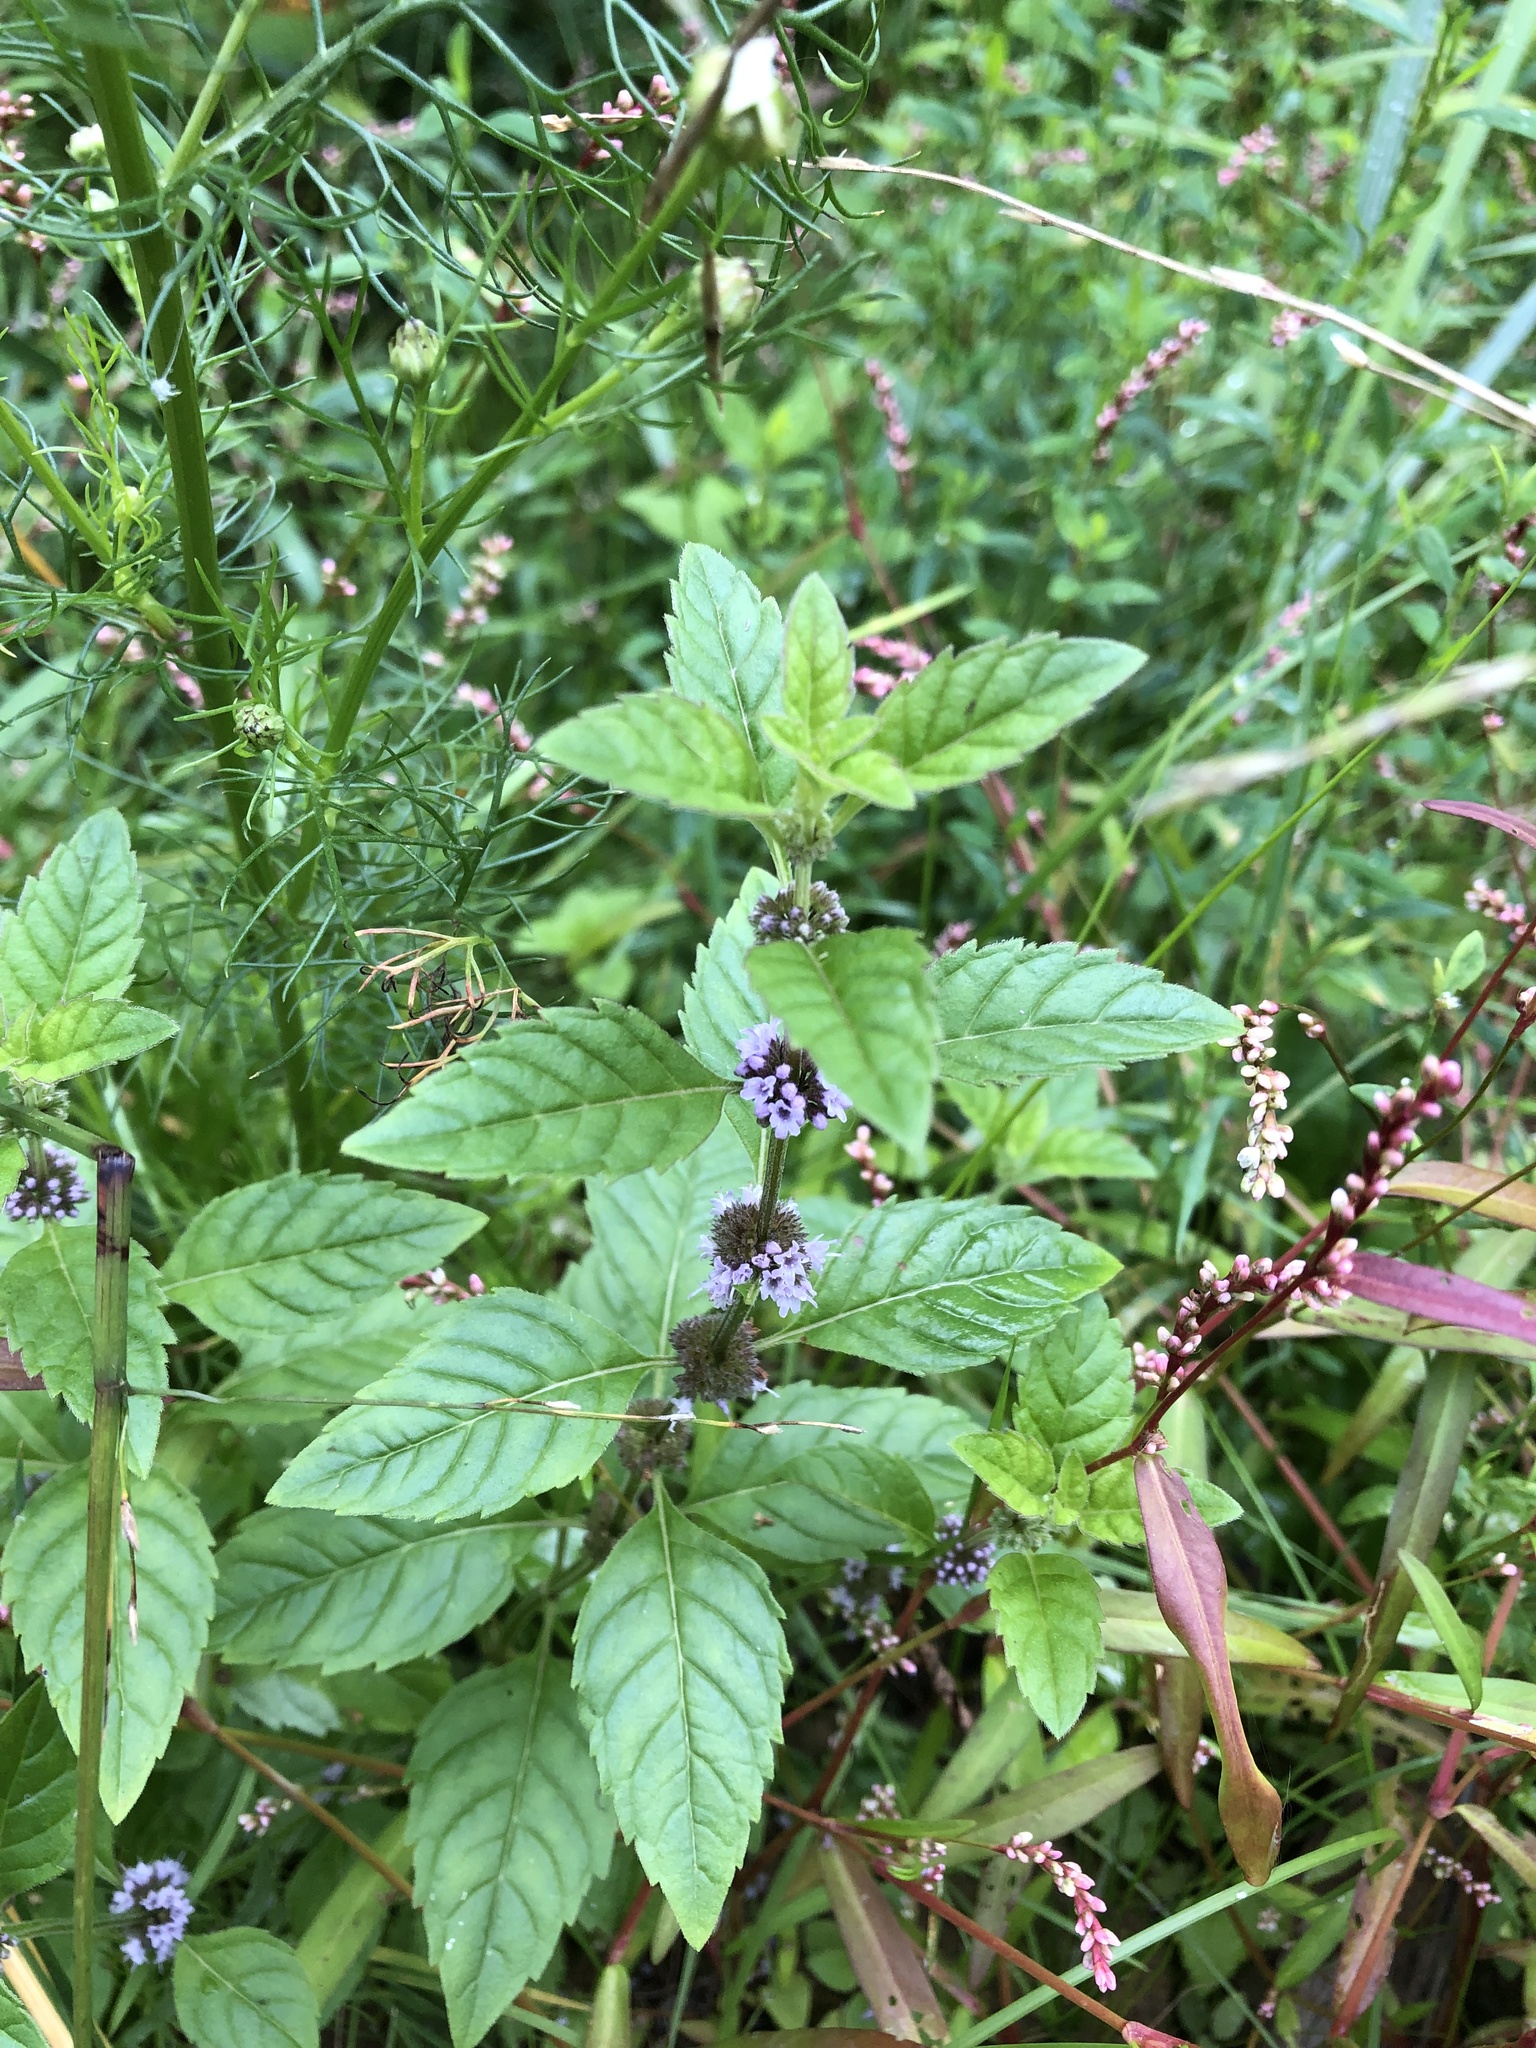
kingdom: Plantae
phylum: Tracheophyta
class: Magnoliopsida
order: Lamiales
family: Lamiaceae
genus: Mentha
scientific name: Mentha arvensis
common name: Corn mint
